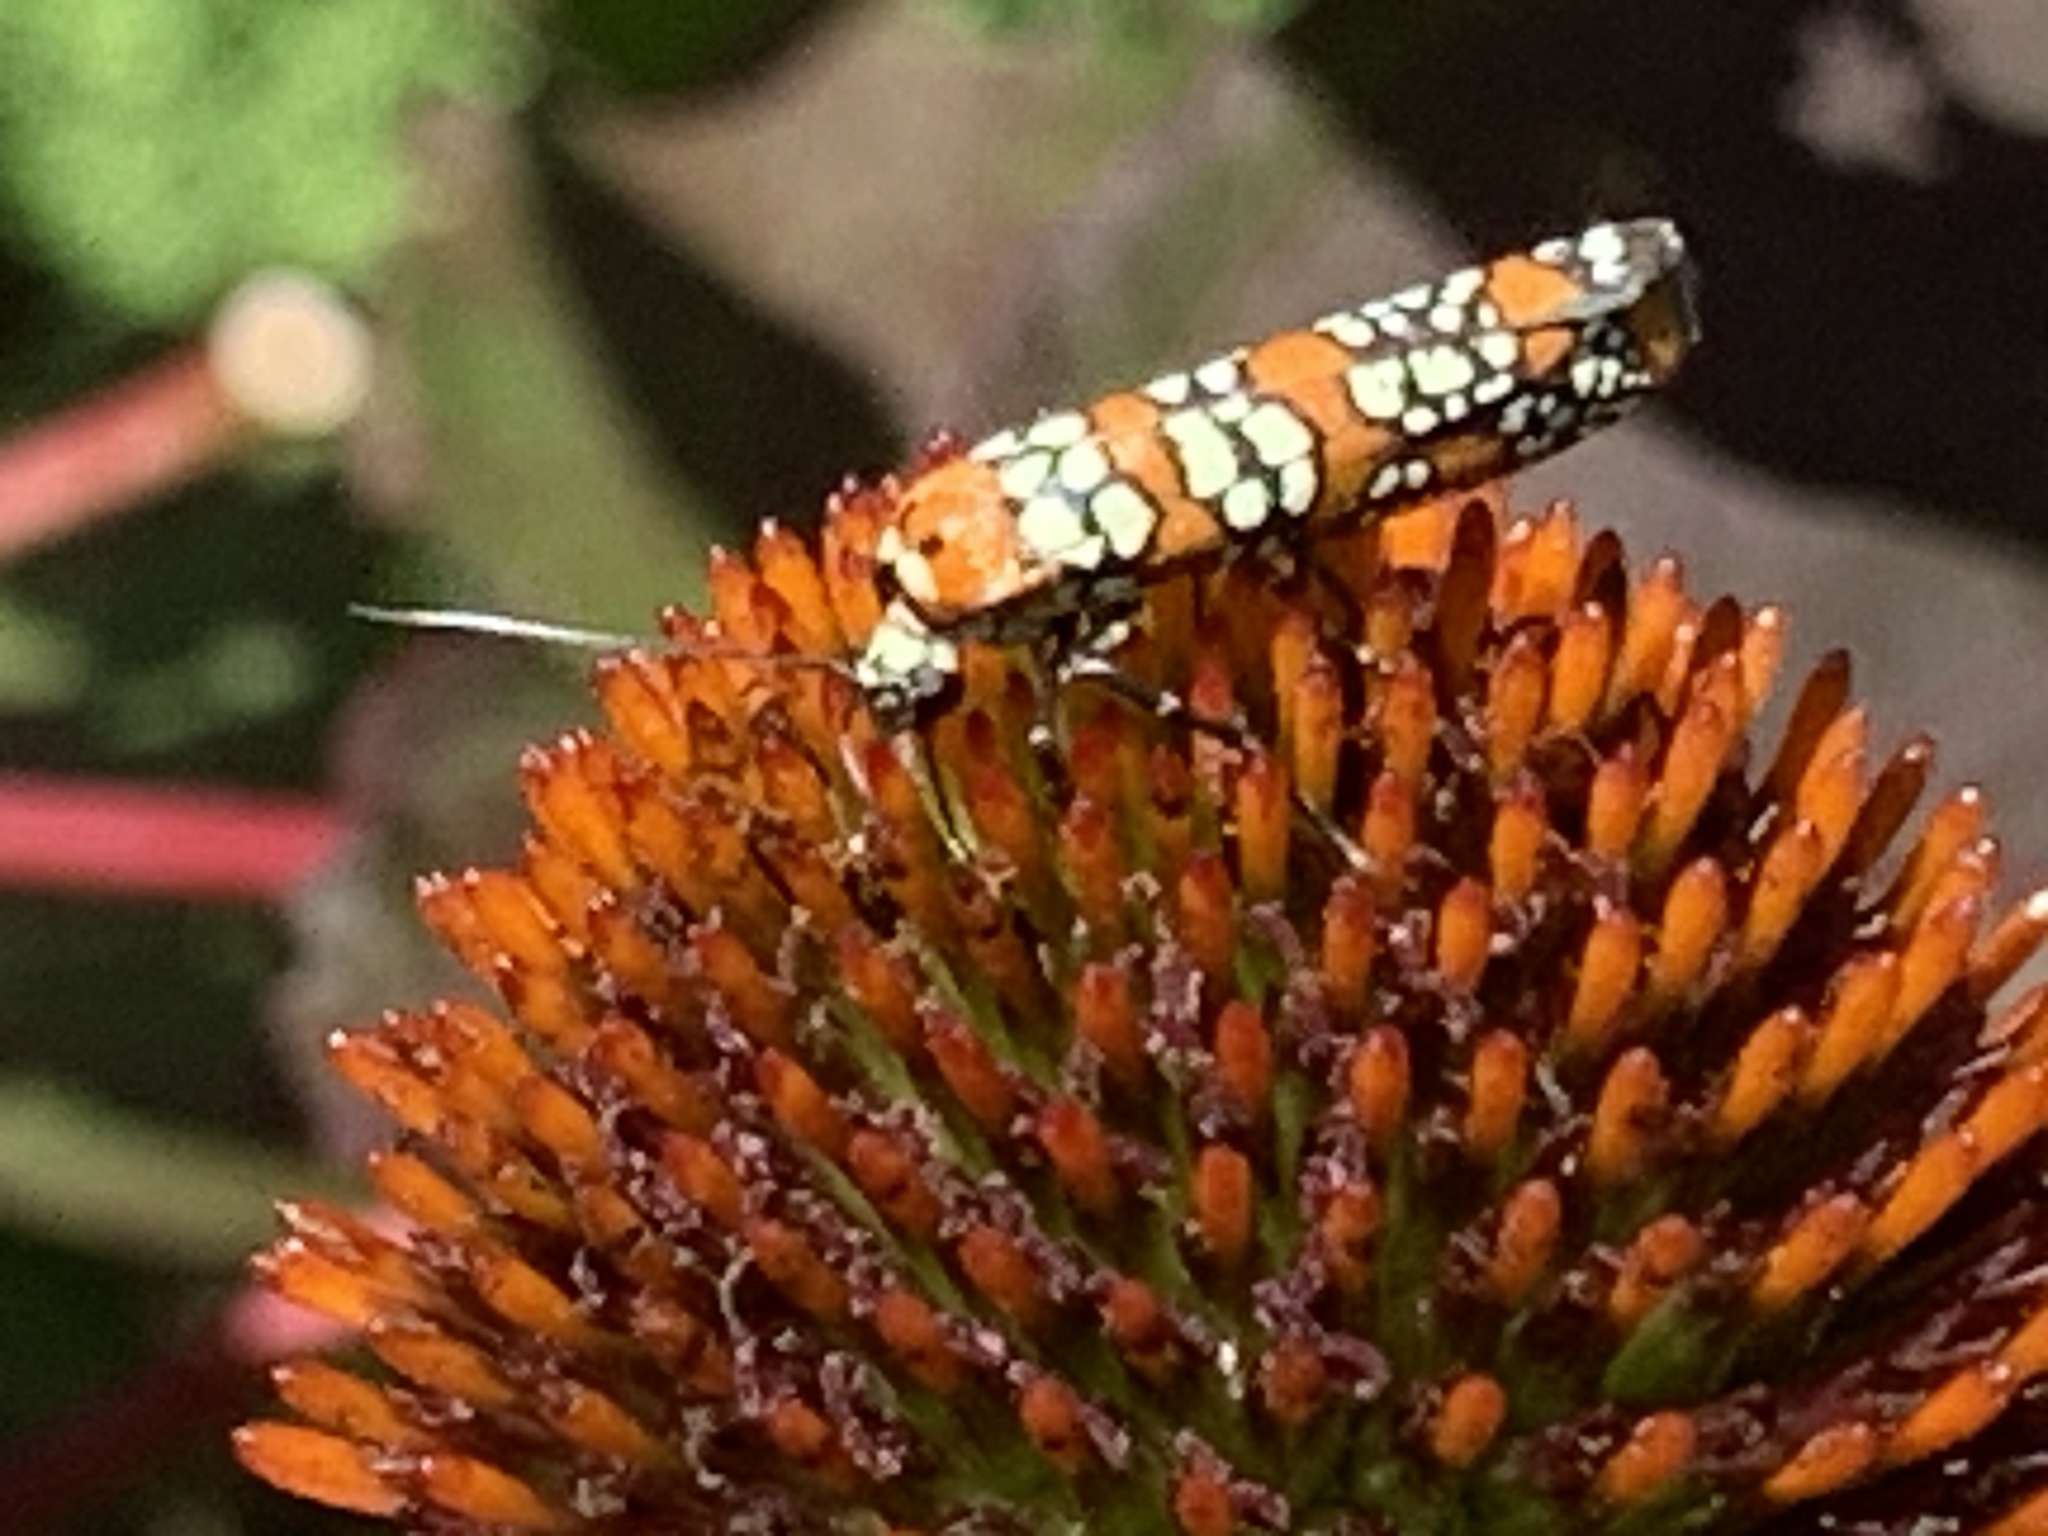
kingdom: Animalia
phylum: Arthropoda
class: Insecta
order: Lepidoptera
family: Attevidae
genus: Atteva
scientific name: Atteva punctella
